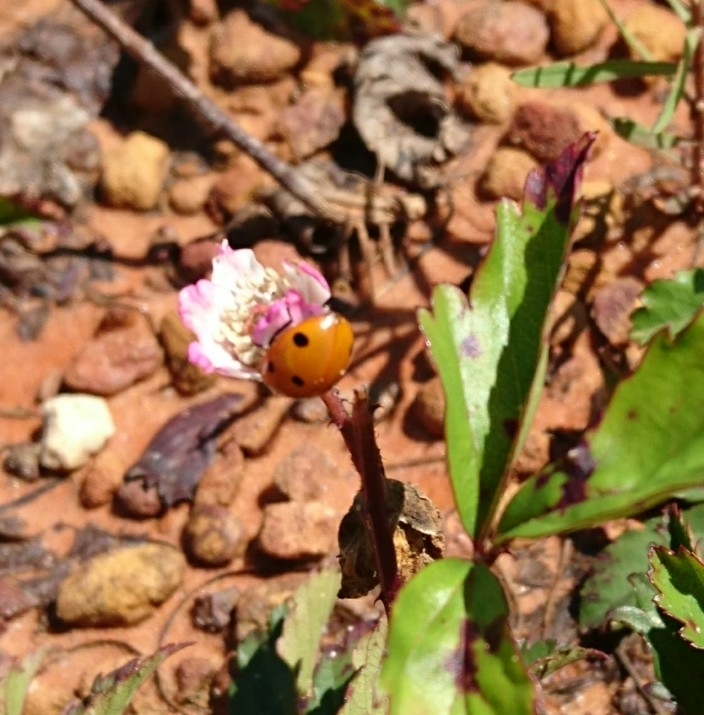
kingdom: Animalia
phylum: Arthropoda
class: Insecta
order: Coleoptera
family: Coccinellidae
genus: Coccinella
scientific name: Coccinella septempunctata
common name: Sevenspotted lady beetle
